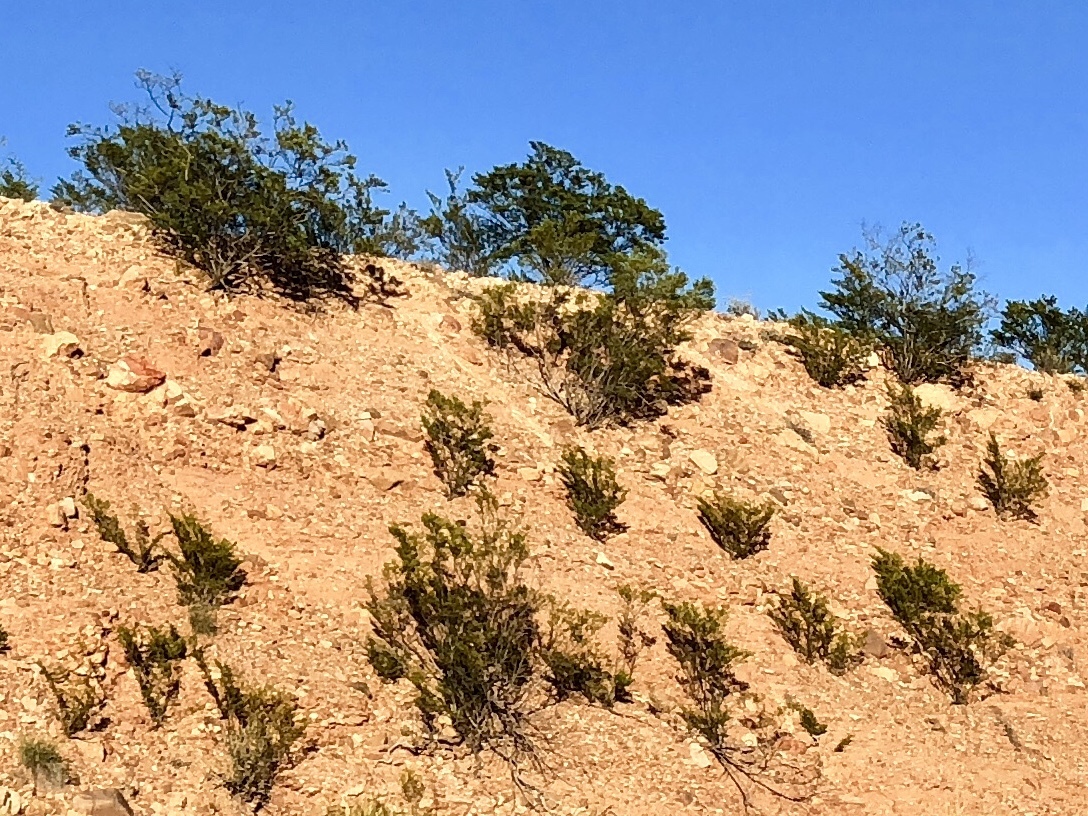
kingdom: Plantae
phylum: Tracheophyta
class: Magnoliopsida
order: Zygophyllales
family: Zygophyllaceae
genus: Larrea
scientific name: Larrea tridentata
